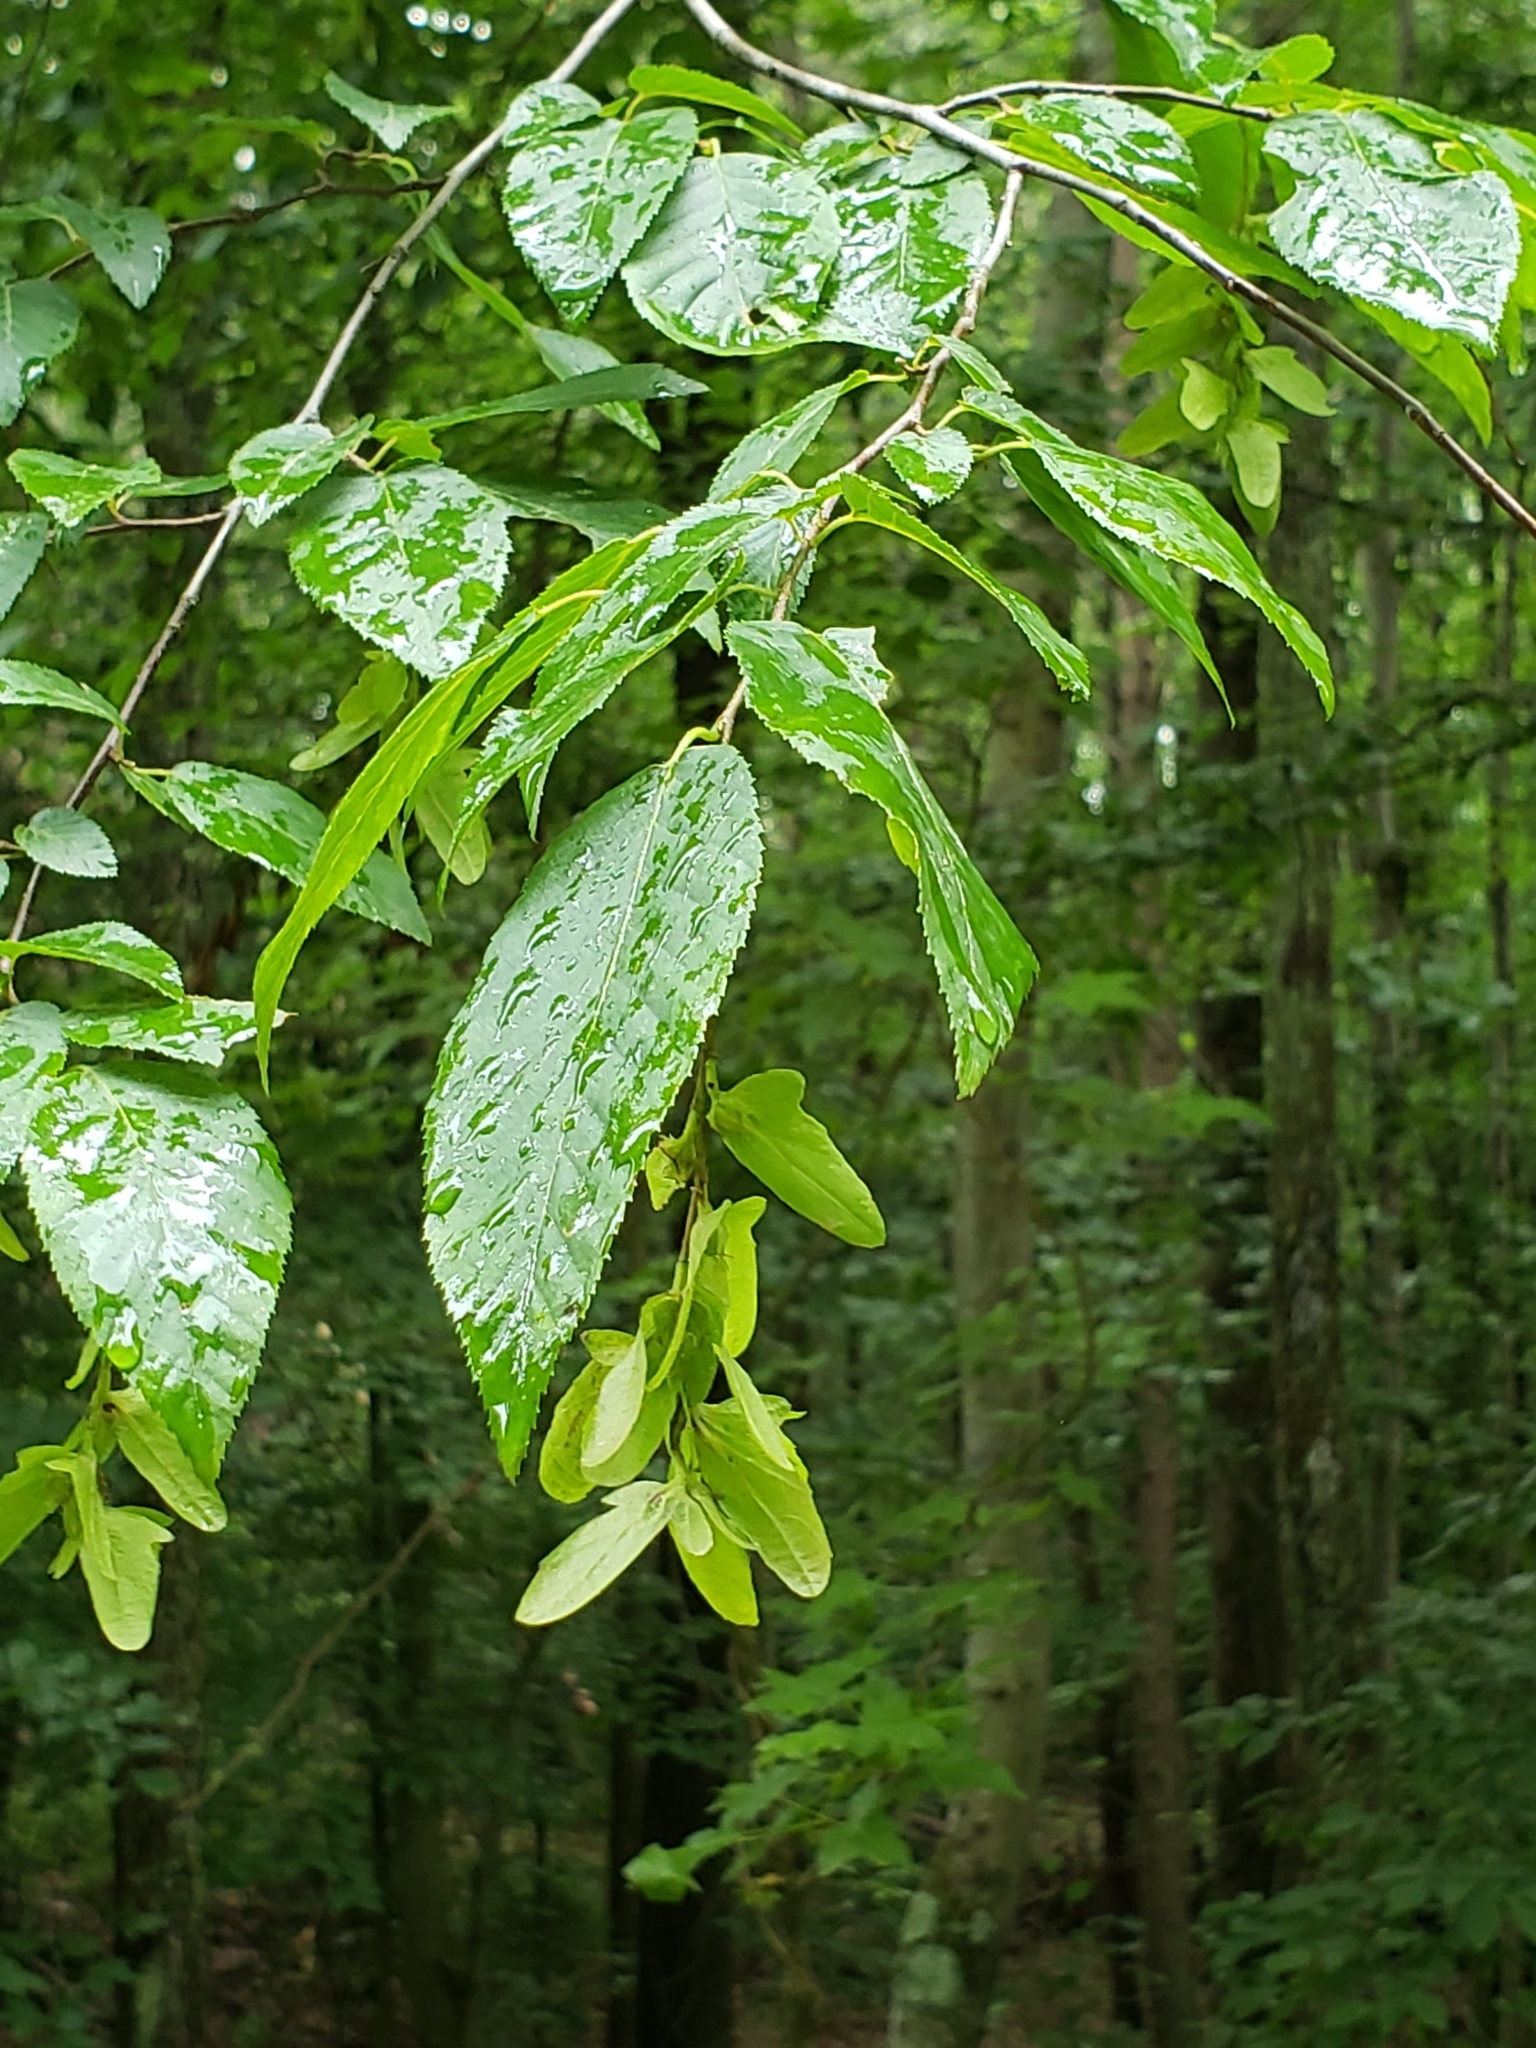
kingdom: Plantae
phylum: Tracheophyta
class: Magnoliopsida
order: Fagales
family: Betulaceae
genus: Carpinus
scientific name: Carpinus caroliniana
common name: American hornbeam
